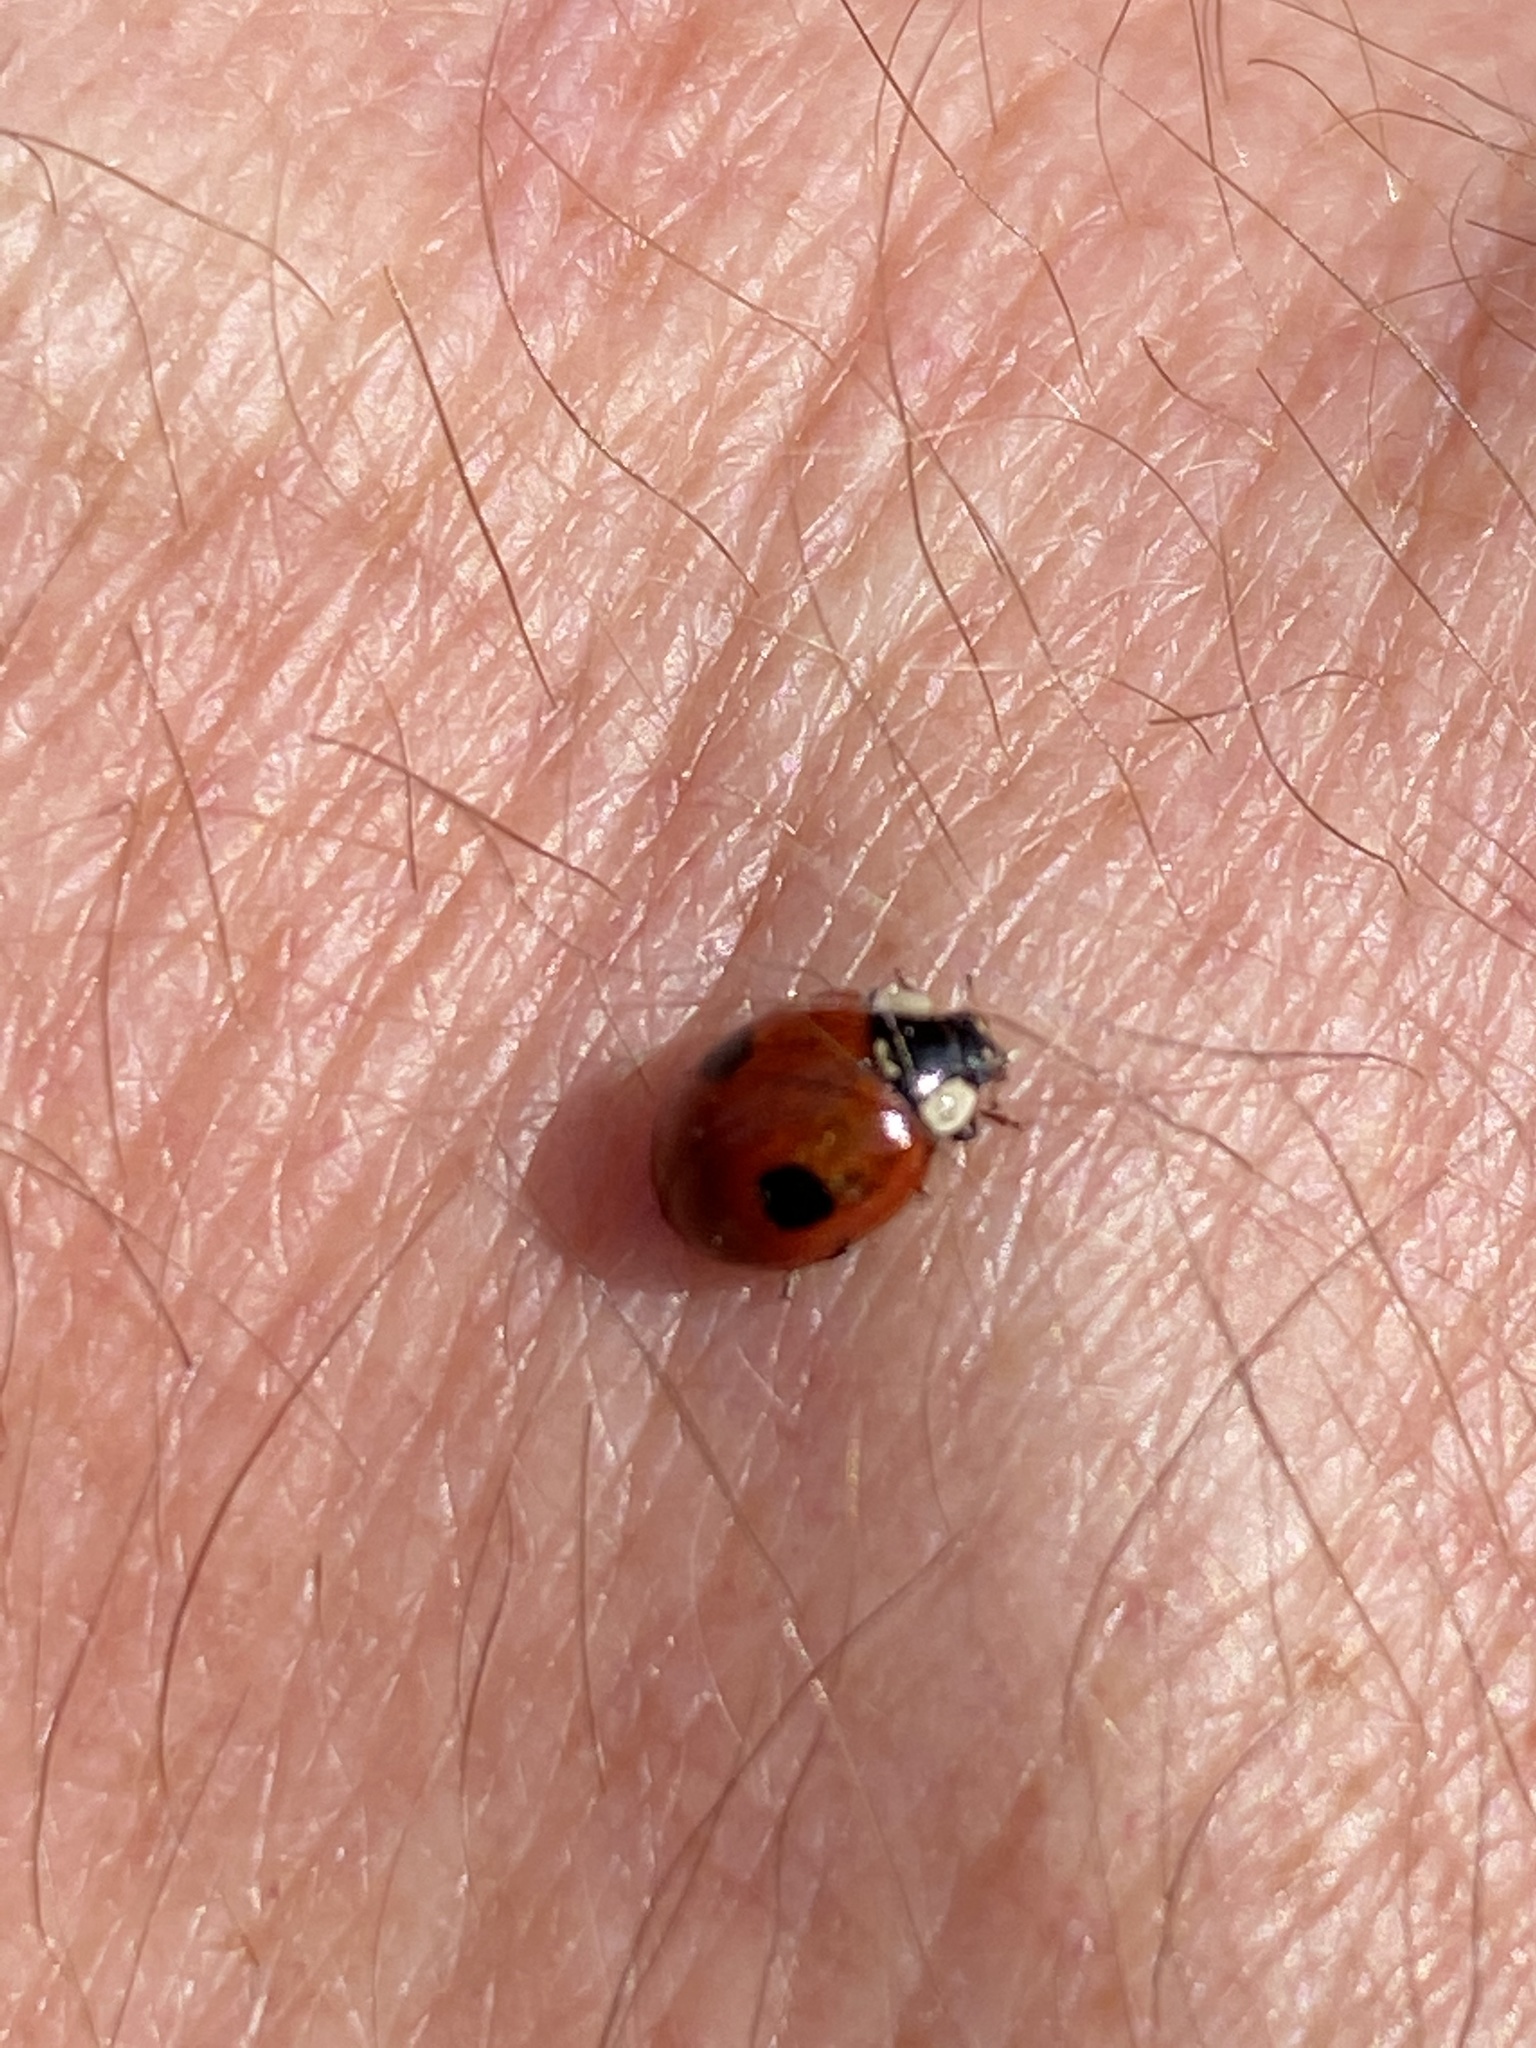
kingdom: Animalia
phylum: Arthropoda
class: Insecta
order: Coleoptera
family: Coccinellidae
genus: Adalia
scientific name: Adalia bipunctata
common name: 2-spot ladybird
